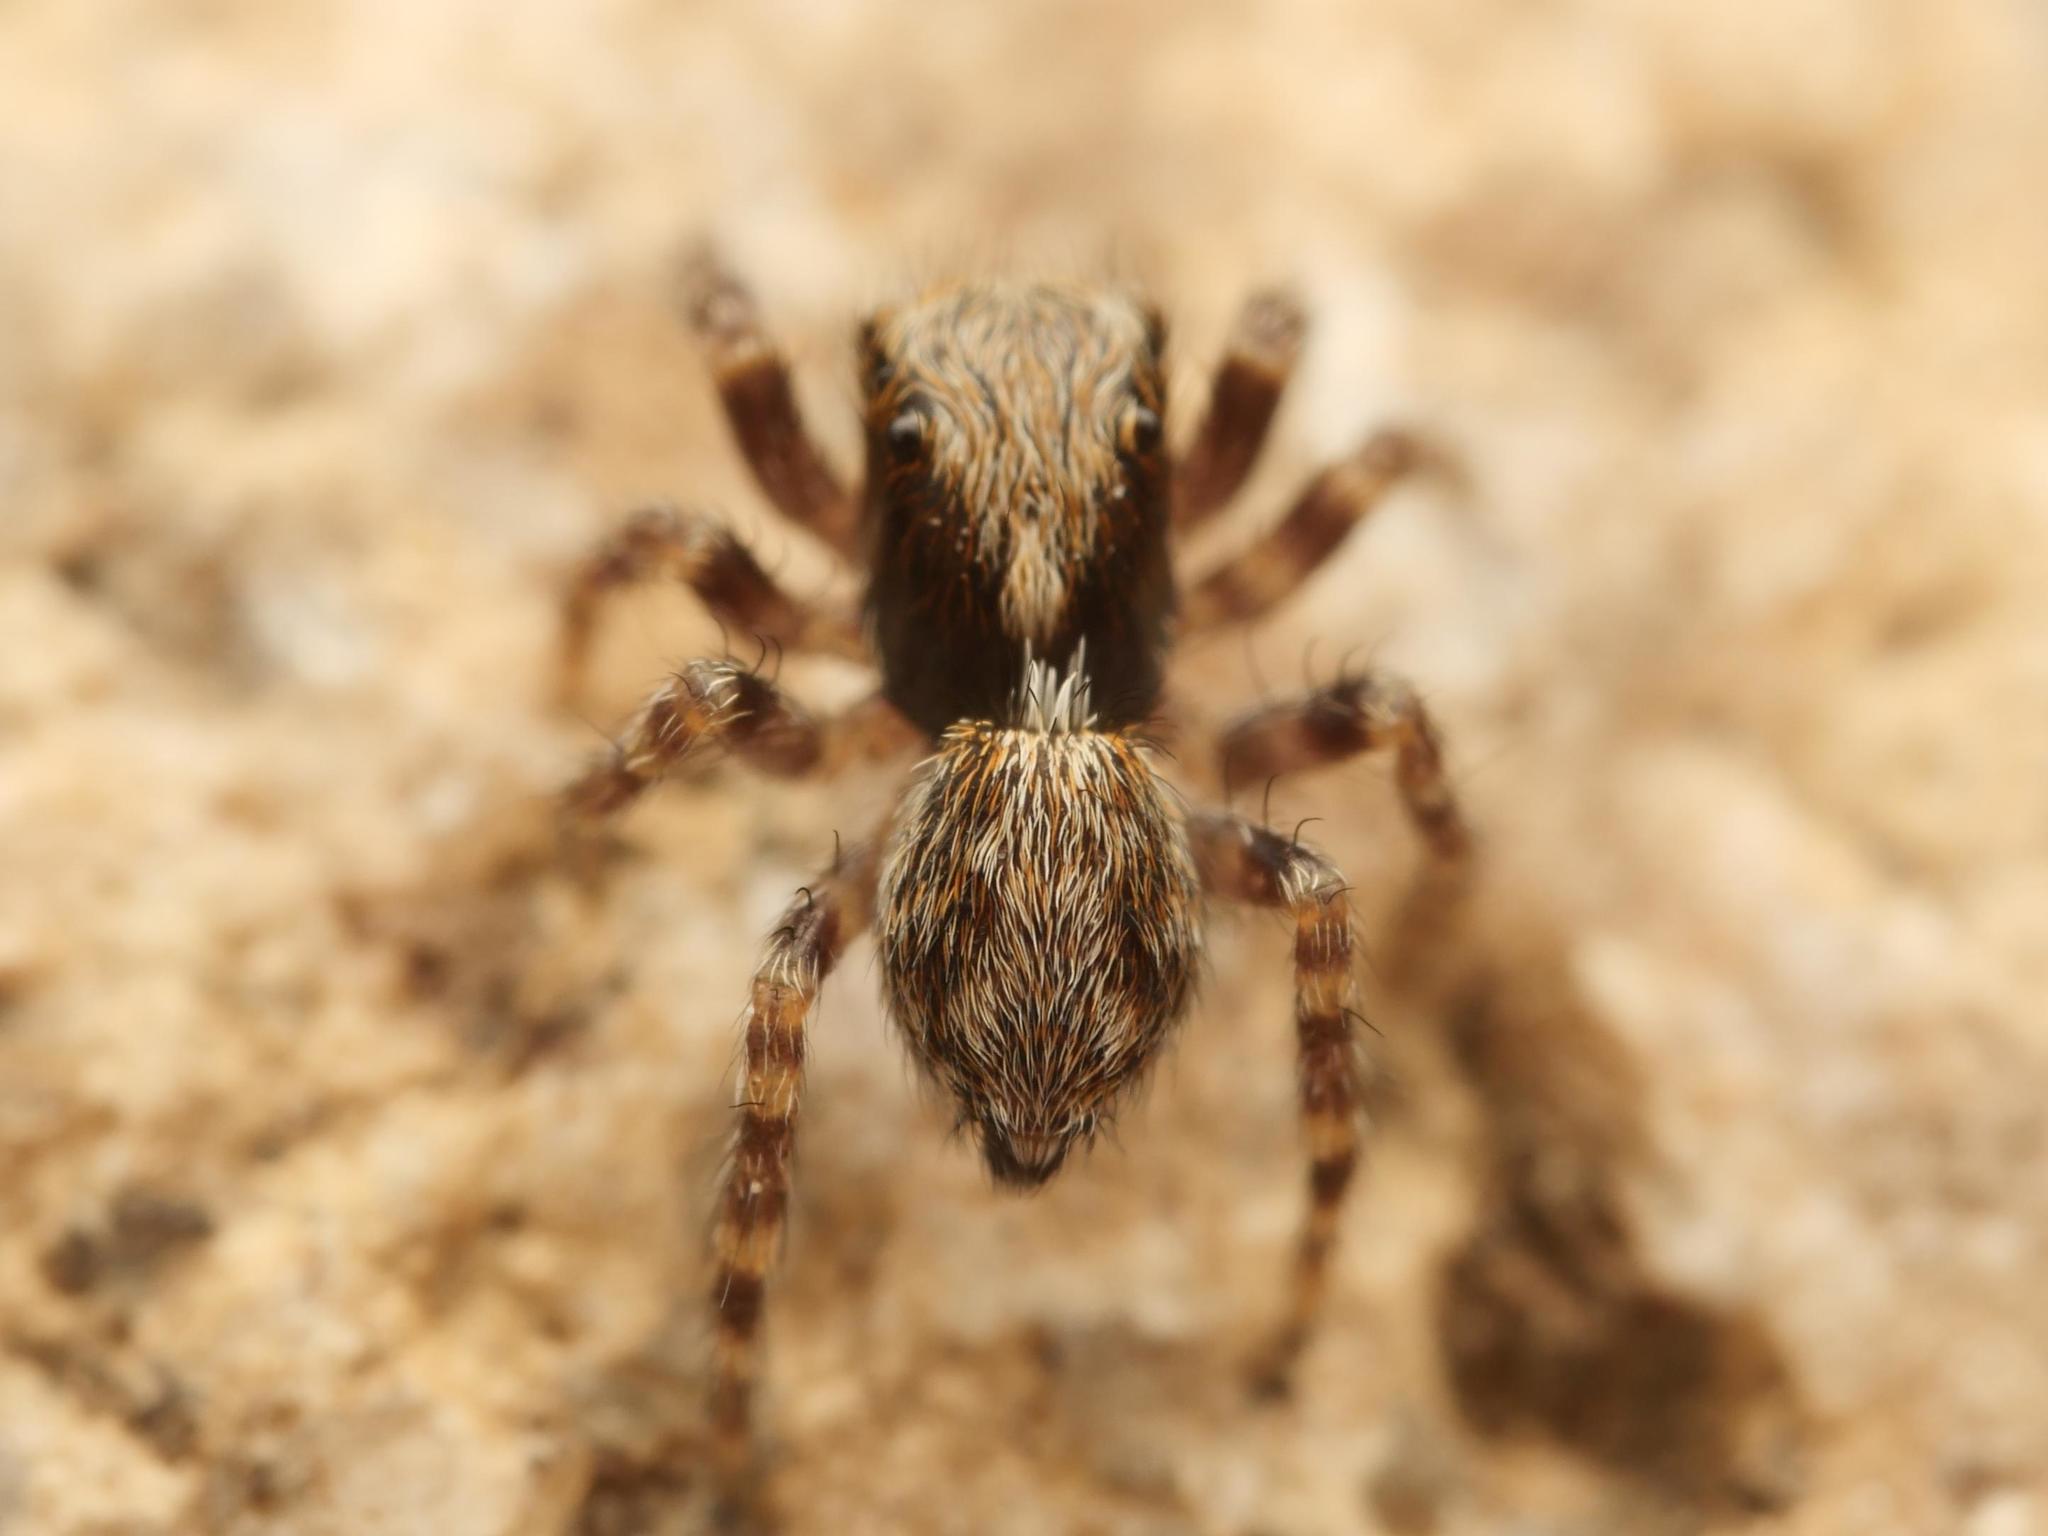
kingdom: Animalia
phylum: Arthropoda
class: Arachnida
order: Araneae
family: Salticidae
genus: Pseudeuophrys
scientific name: Pseudeuophrys lanigera
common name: Jumping spider
